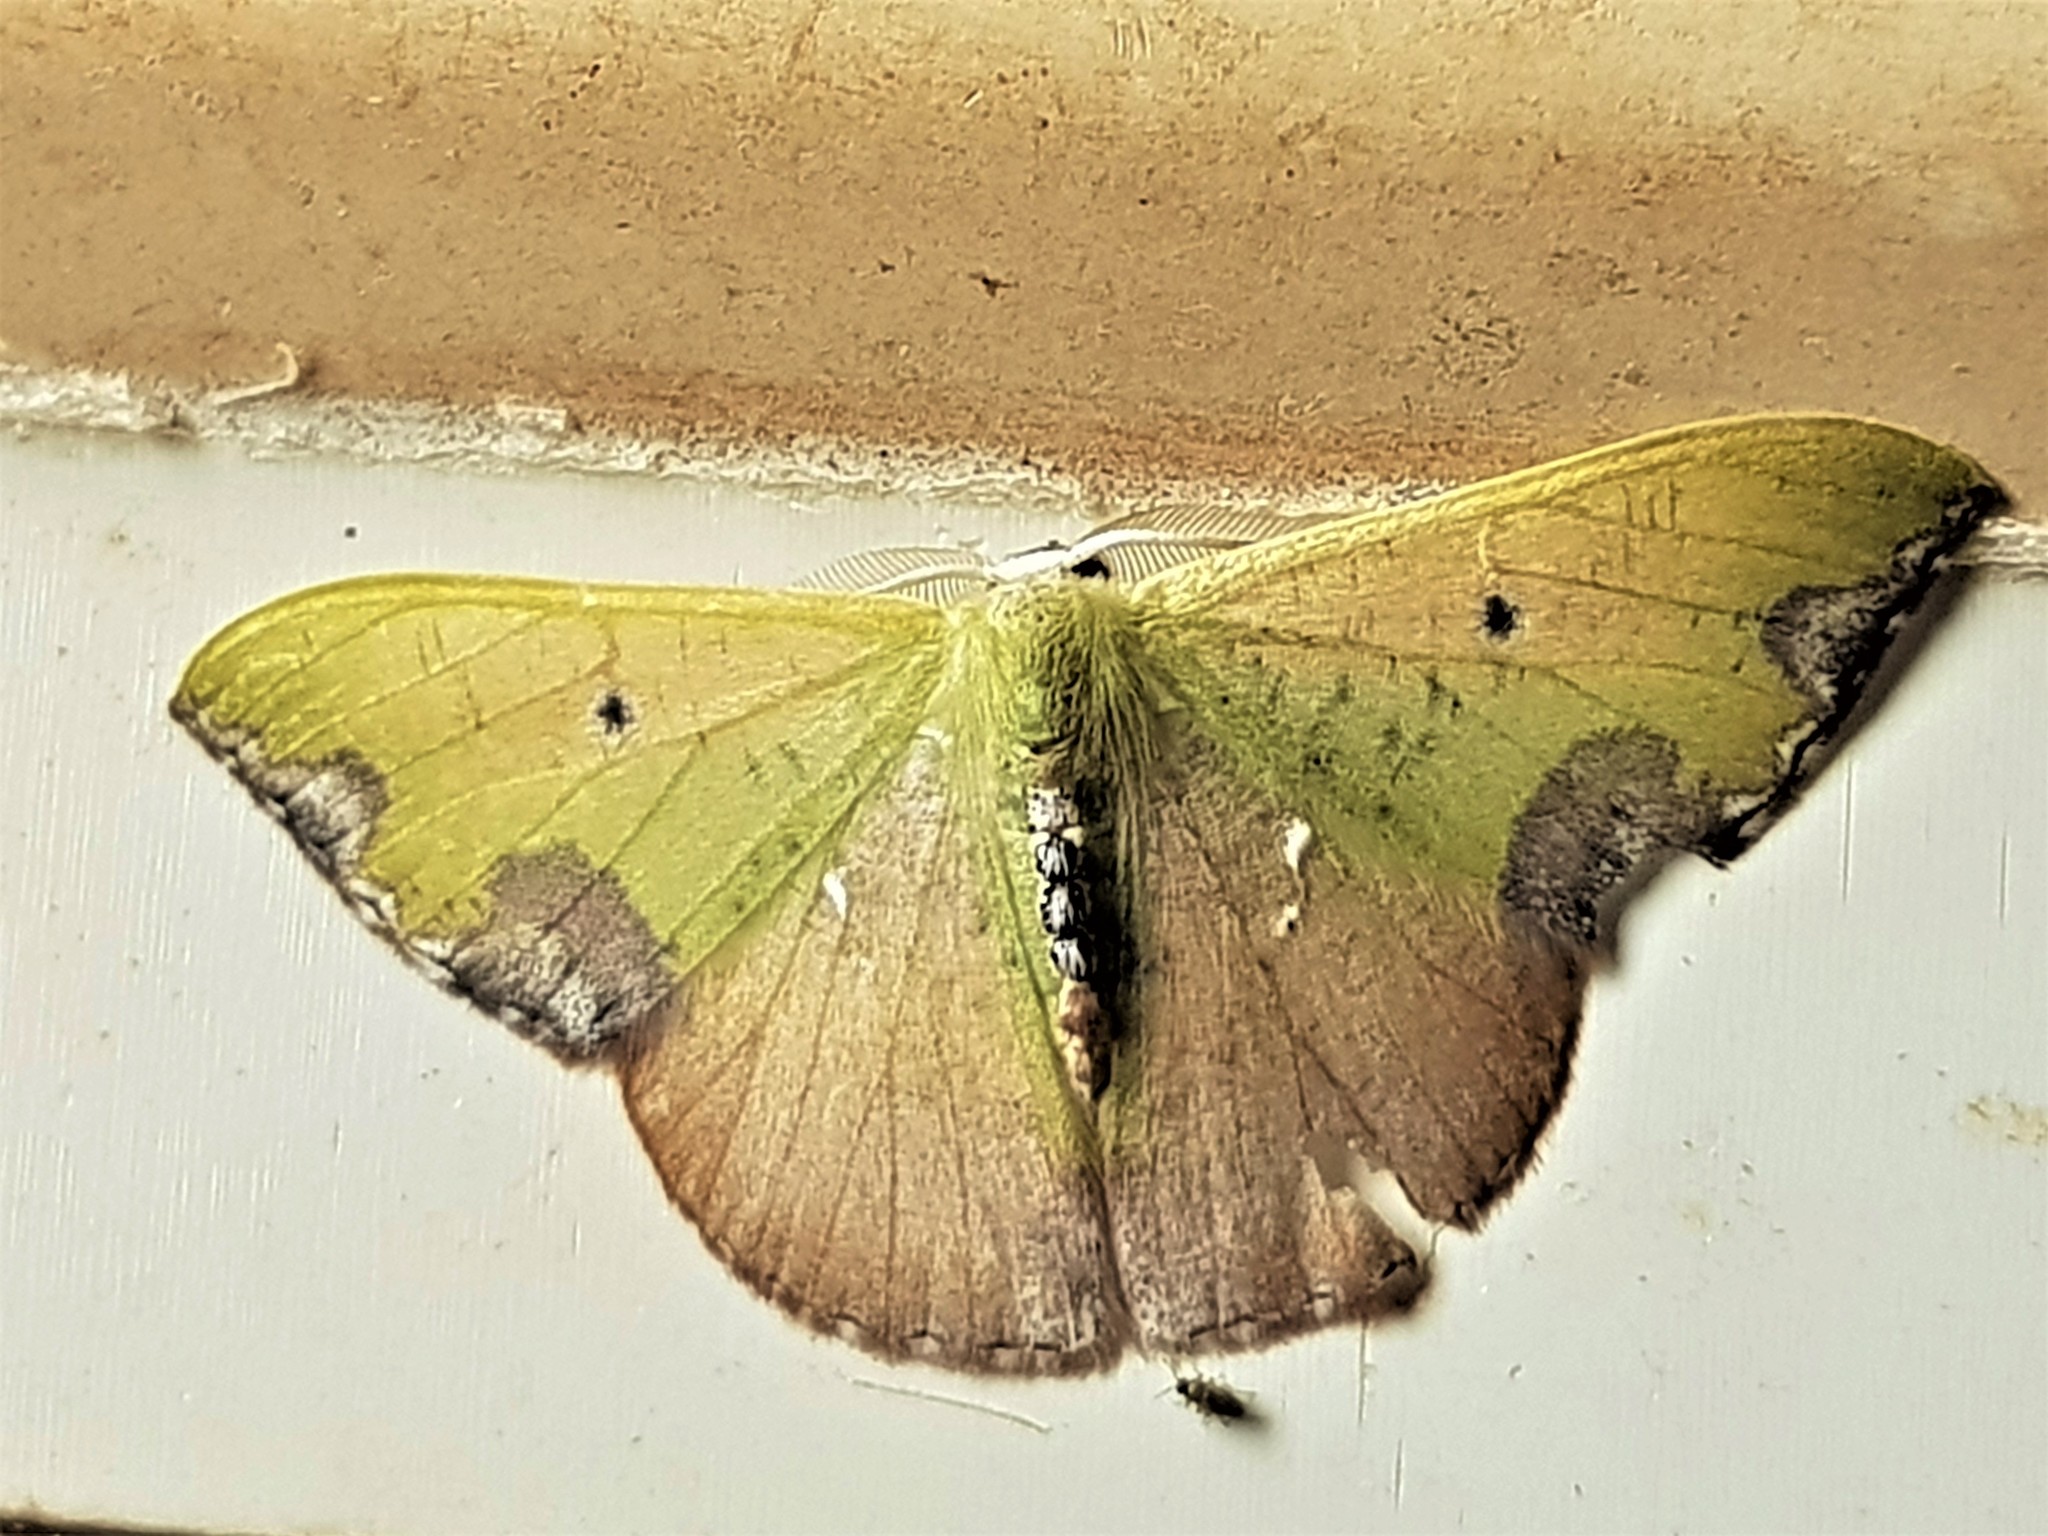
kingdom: Animalia
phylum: Arthropoda
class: Insecta
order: Lepidoptera
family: Geometridae
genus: Oospila
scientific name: Oospila violacea
